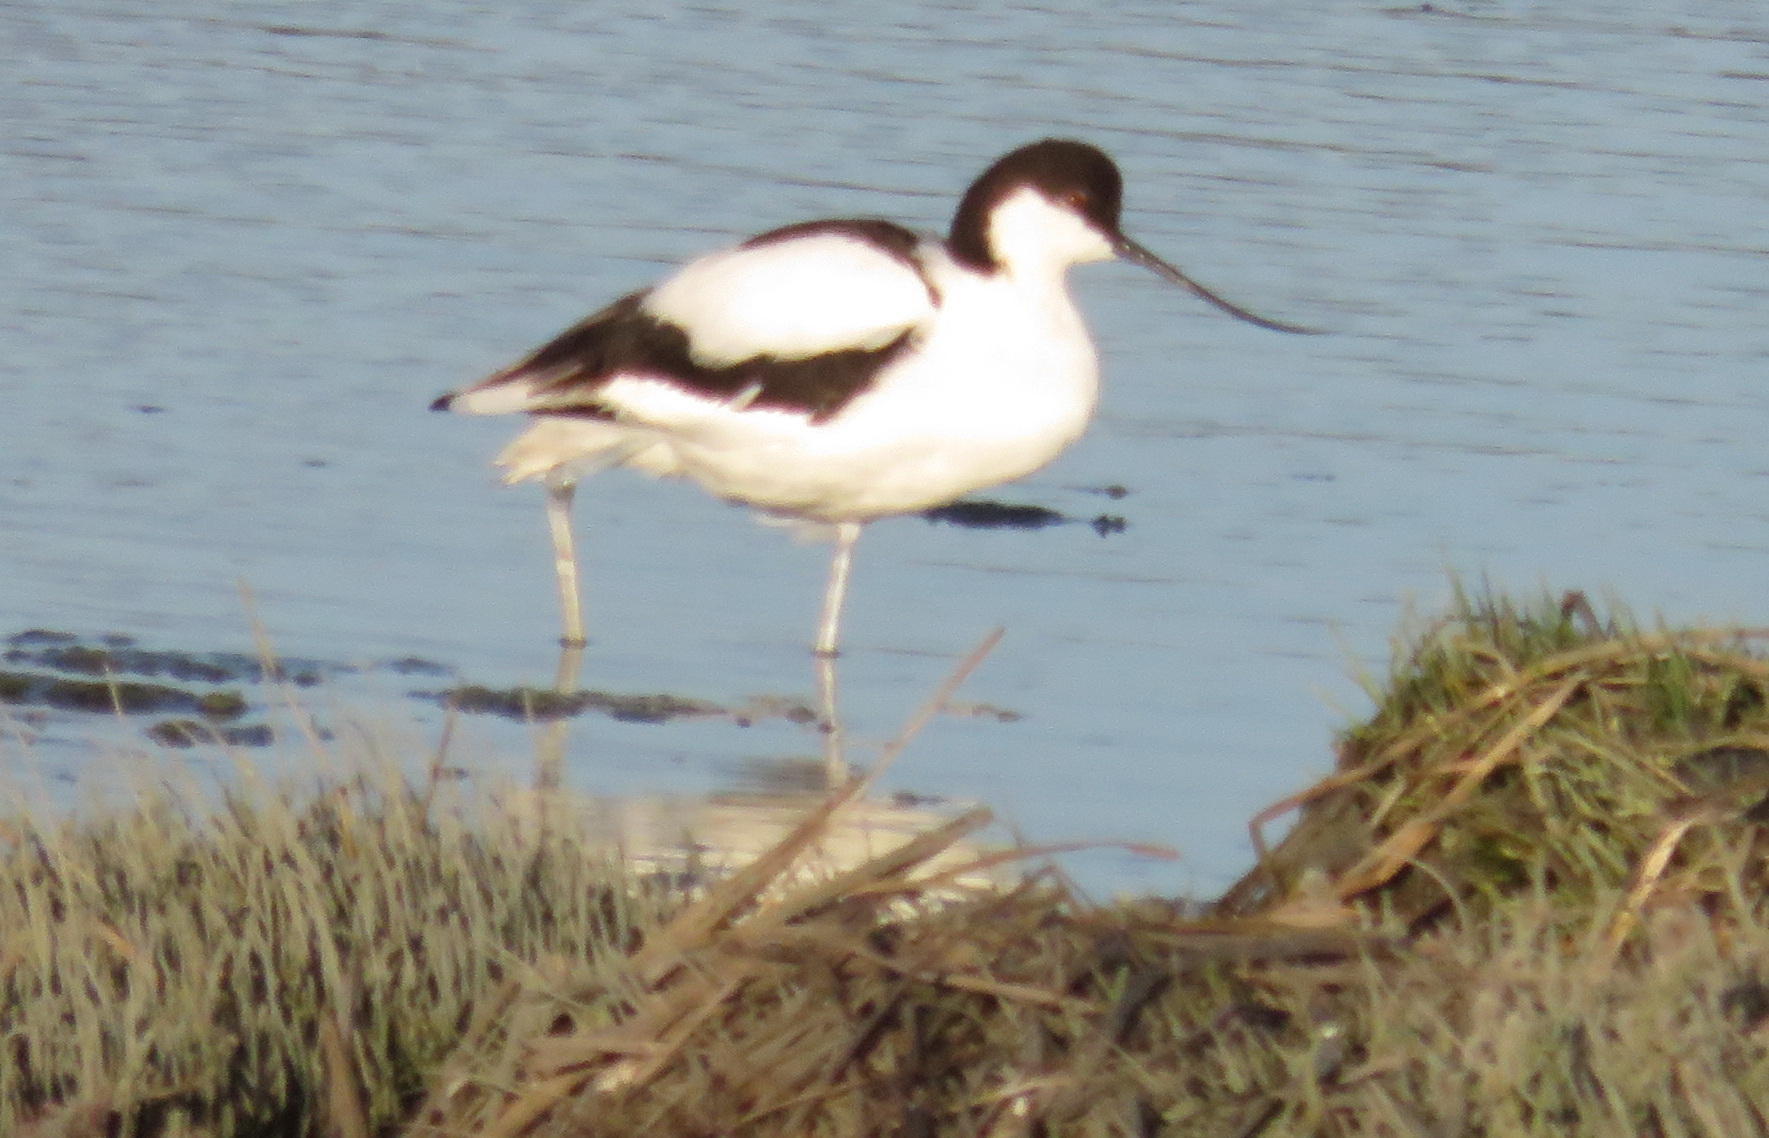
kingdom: Animalia
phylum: Chordata
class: Aves
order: Charadriiformes
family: Recurvirostridae
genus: Recurvirostra
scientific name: Recurvirostra avosetta
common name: Pied avocet
